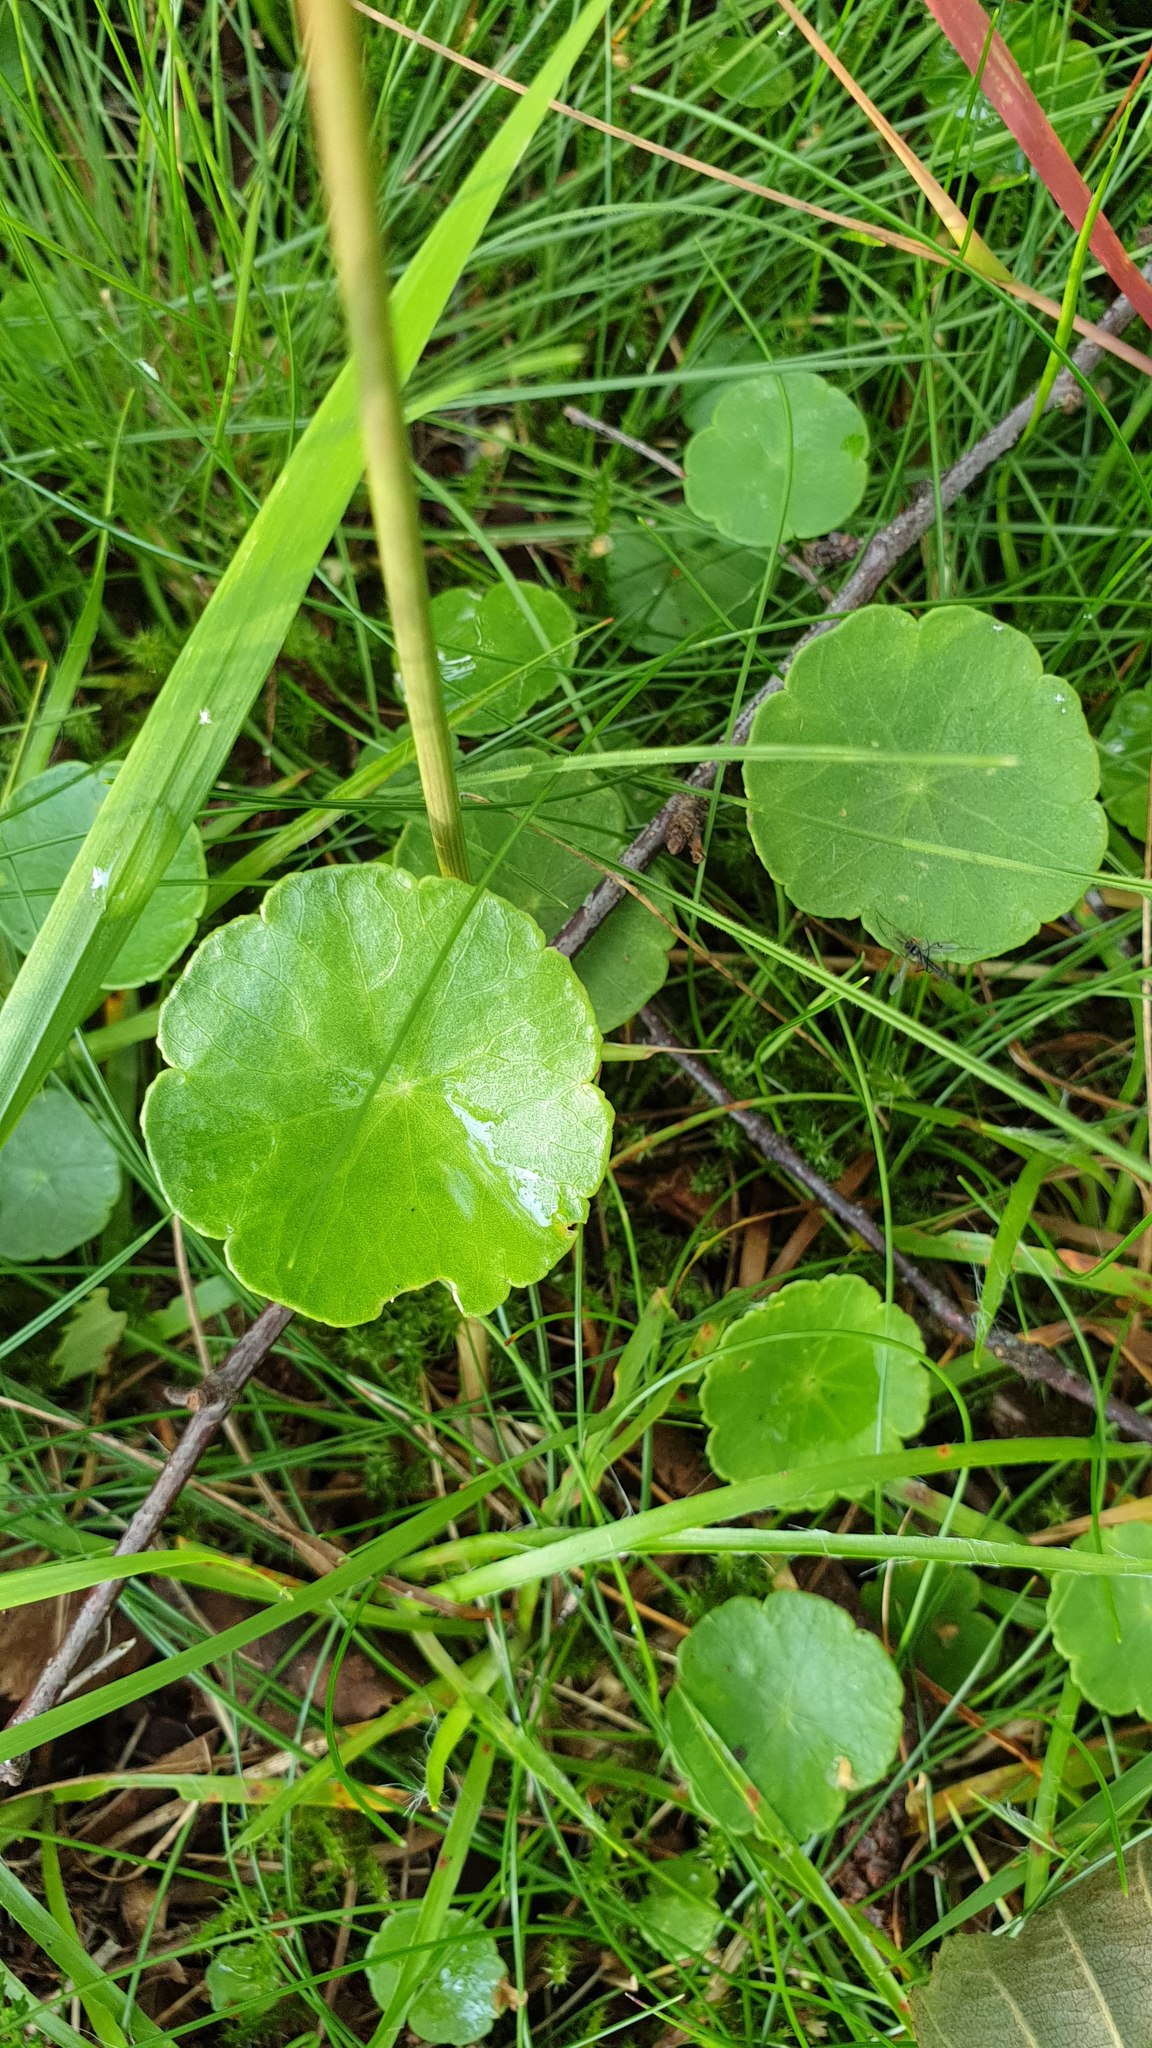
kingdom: Plantae
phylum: Tracheophyta
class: Magnoliopsida
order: Apiales
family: Araliaceae
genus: Hydrocotyle
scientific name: Hydrocotyle vulgaris
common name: Marsh pennywort
